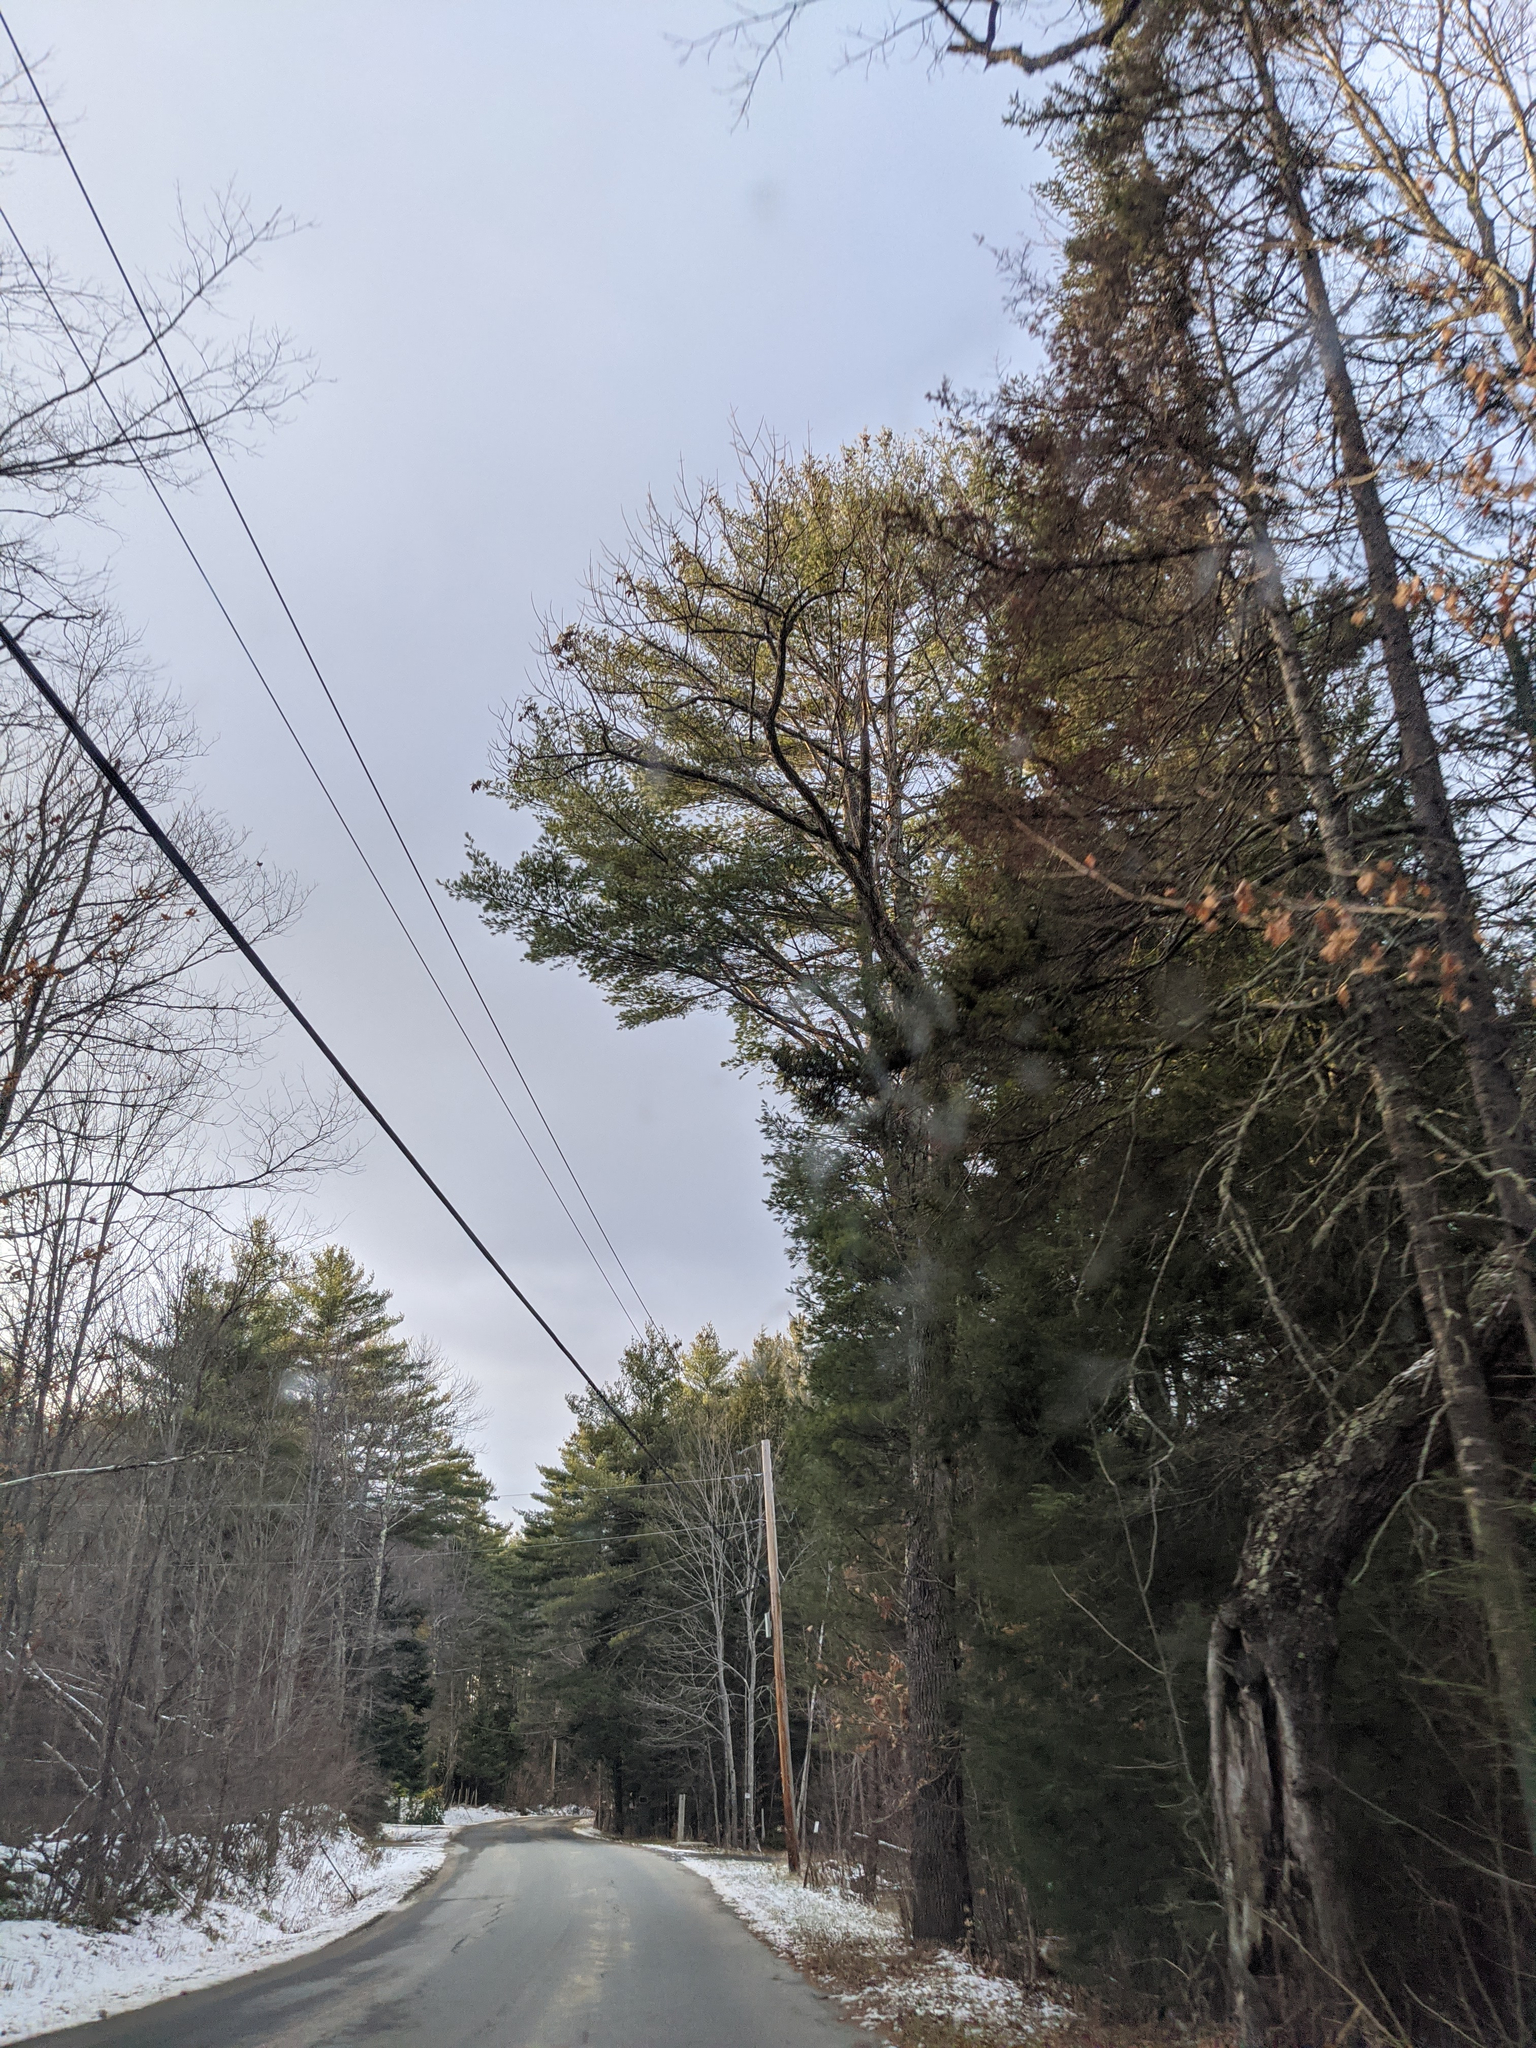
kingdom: Plantae
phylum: Tracheophyta
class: Pinopsida
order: Pinales
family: Pinaceae
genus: Pinus
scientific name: Pinus strobus
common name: Weymouth pine
